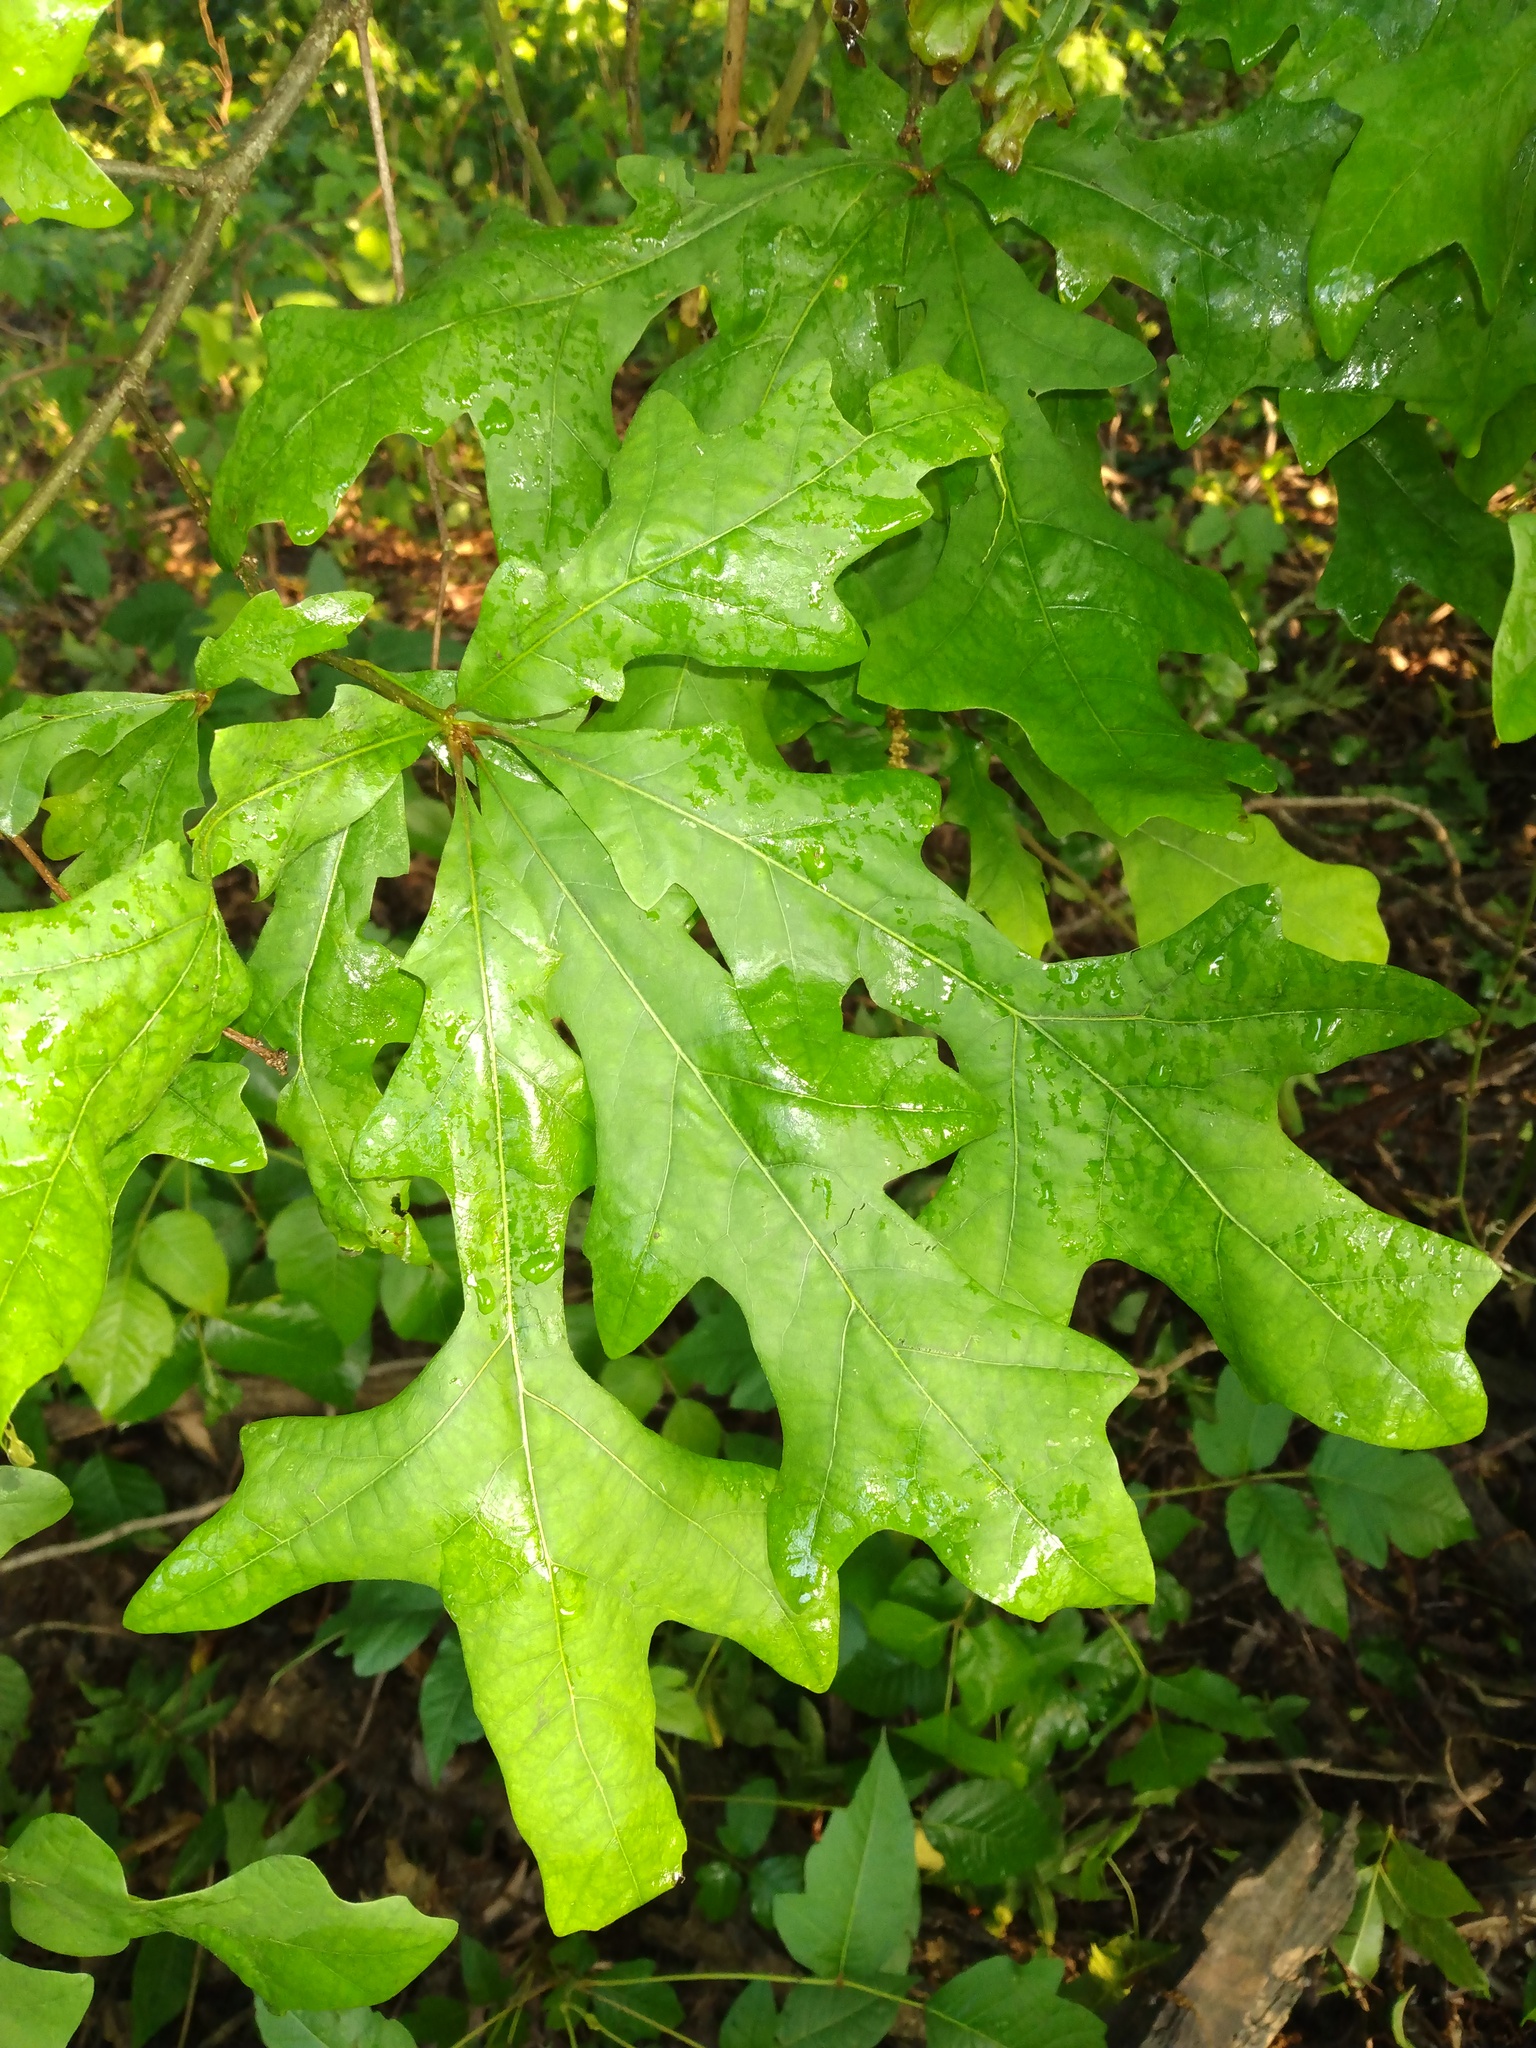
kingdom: Plantae
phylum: Tracheophyta
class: Magnoliopsida
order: Fagales
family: Fagaceae
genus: Quercus
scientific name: Quercus lyrata
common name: Overcup oak
